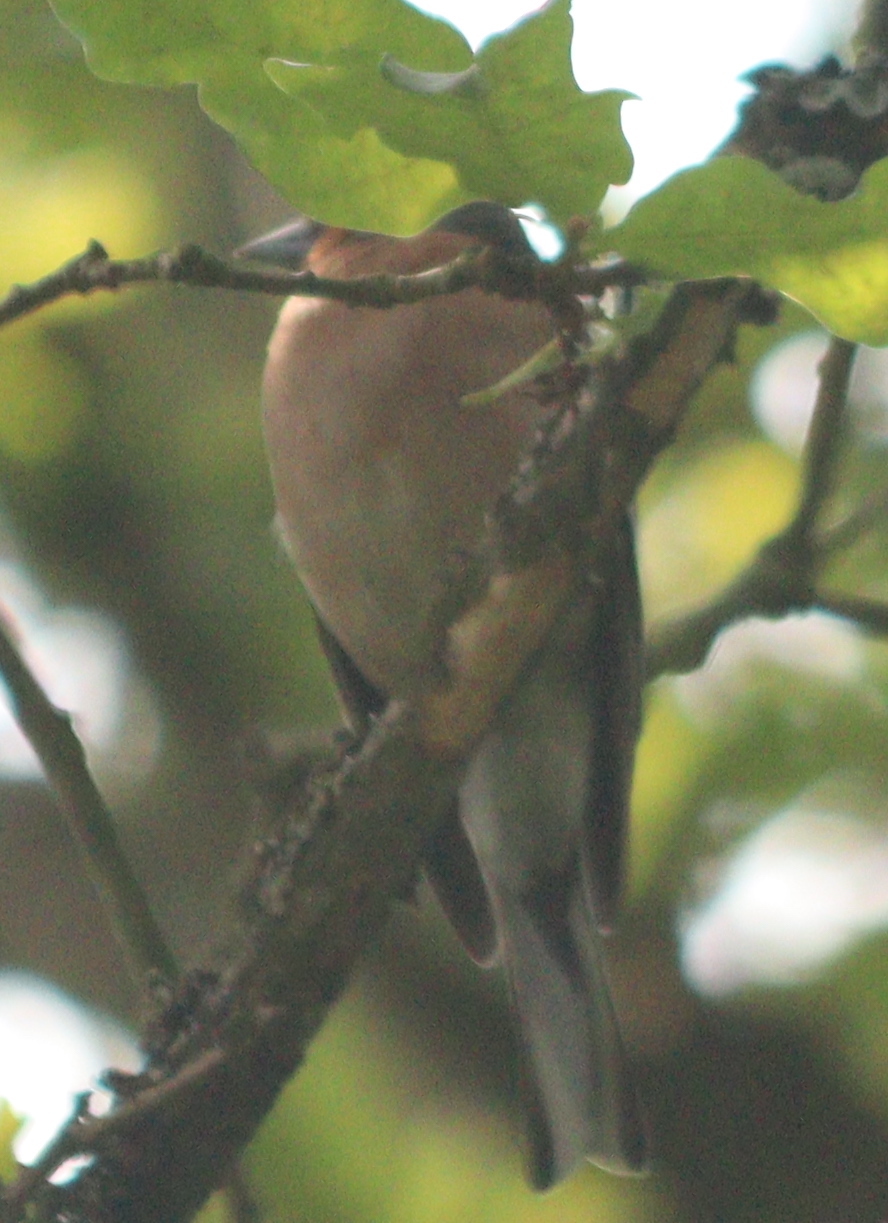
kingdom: Animalia
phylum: Chordata
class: Aves
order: Passeriformes
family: Fringillidae
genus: Fringilla
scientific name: Fringilla coelebs
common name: Common chaffinch
